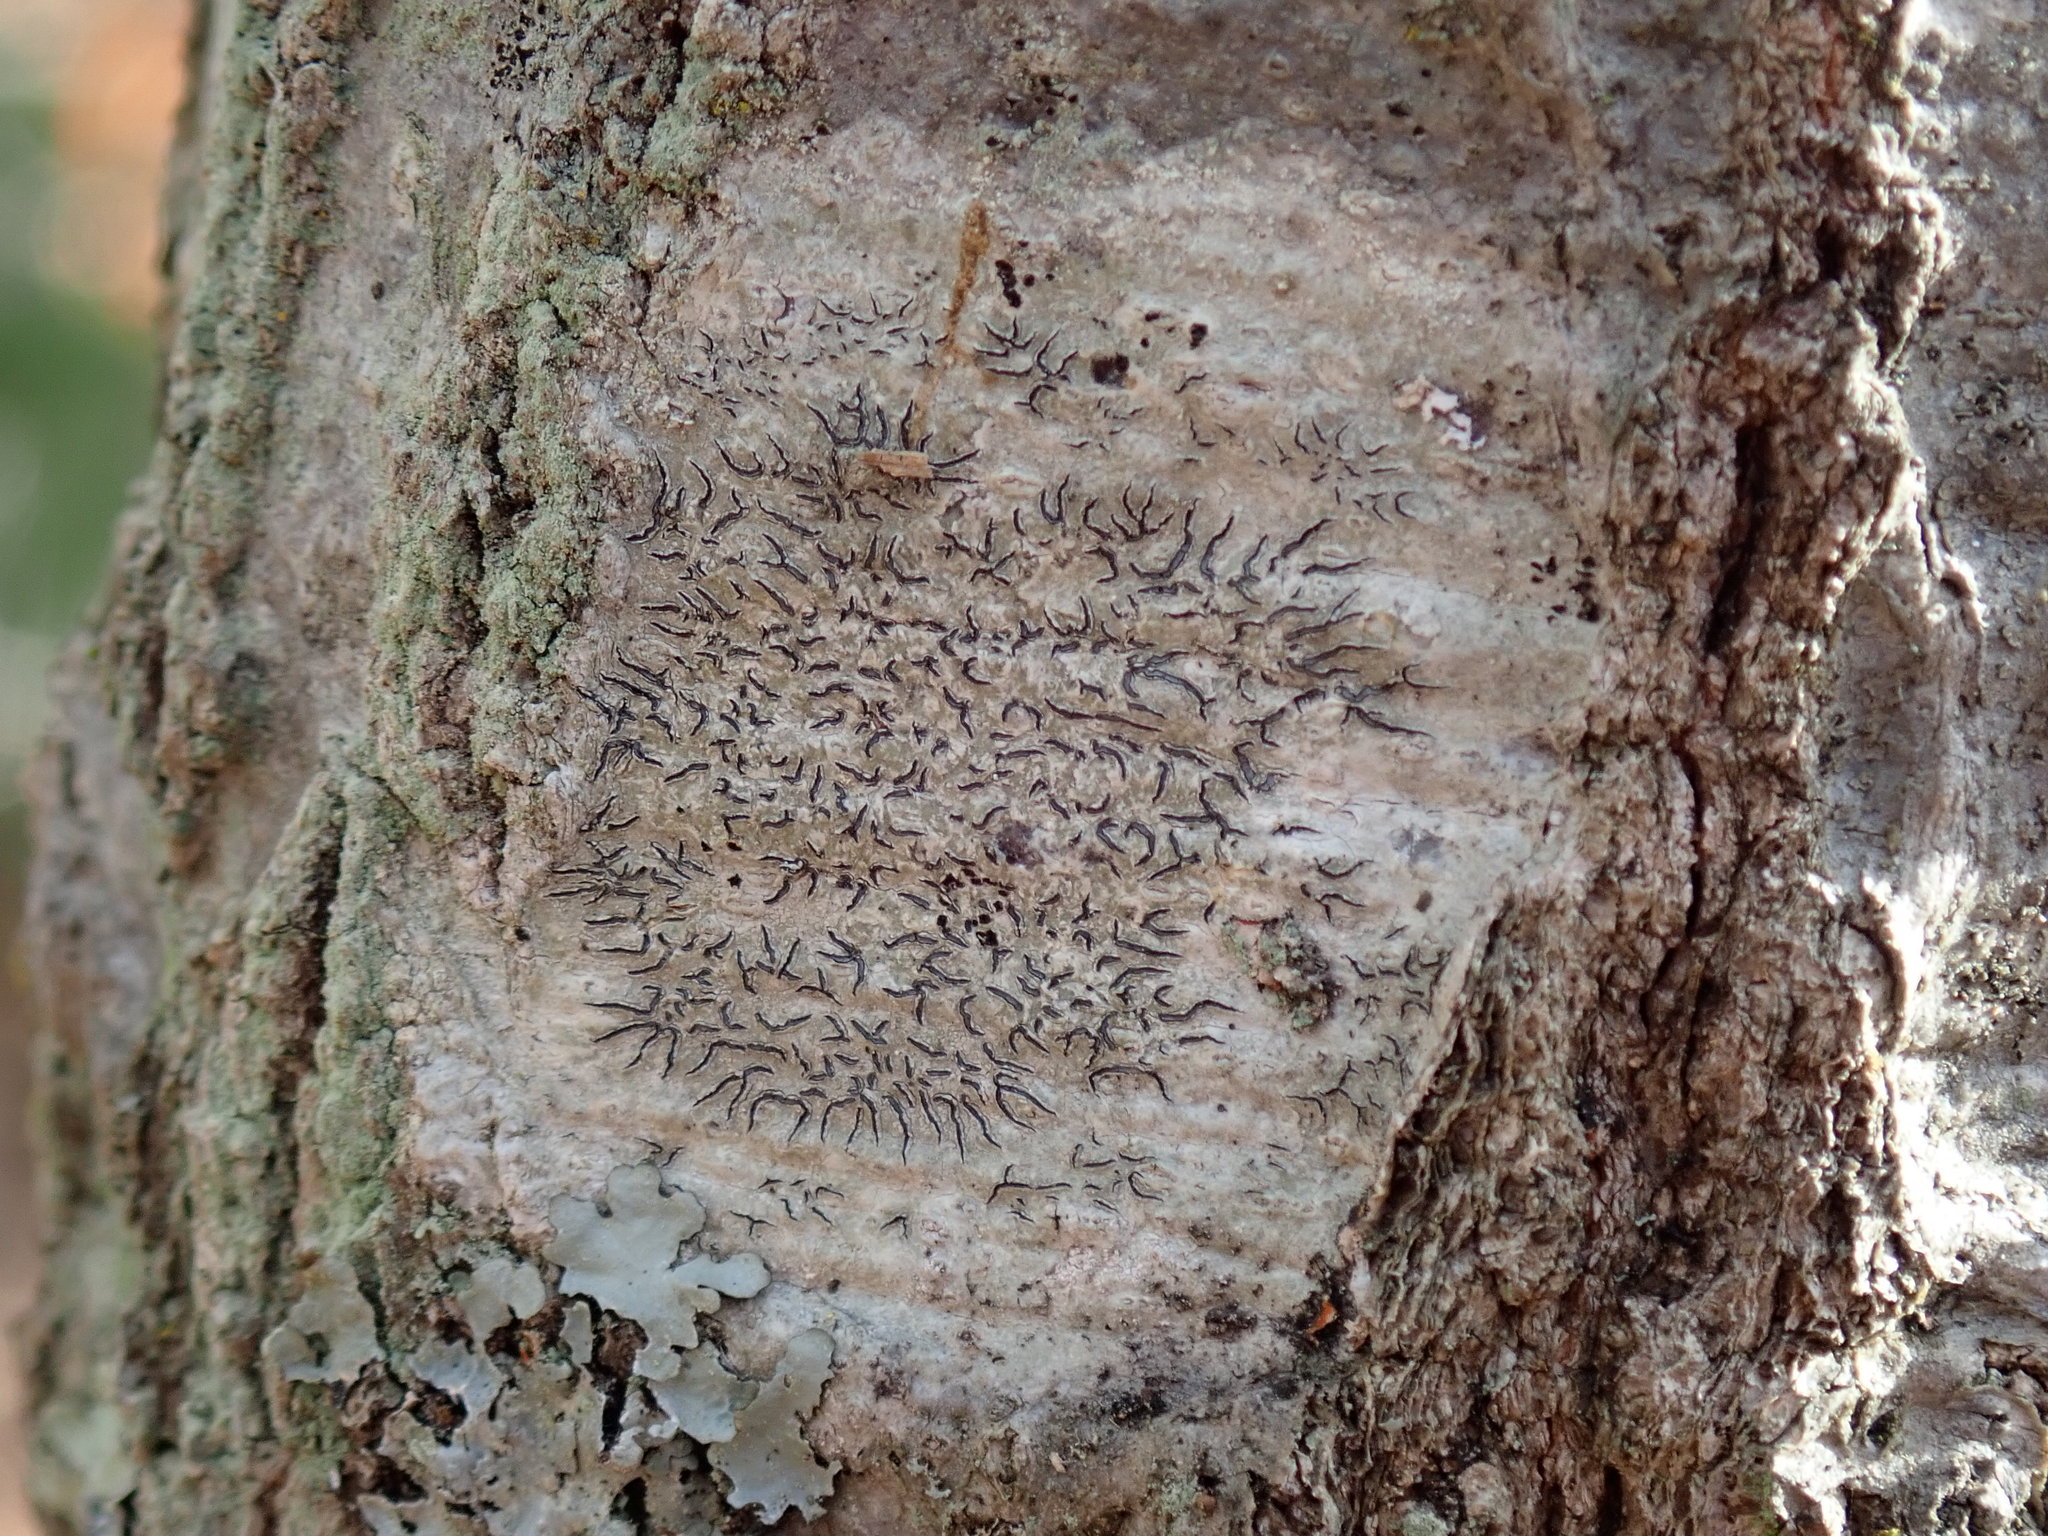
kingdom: Fungi
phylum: Ascomycota
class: Lecanoromycetes
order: Ostropales
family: Graphidaceae
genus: Graphis
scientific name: Graphis scripta
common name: Script lichen
